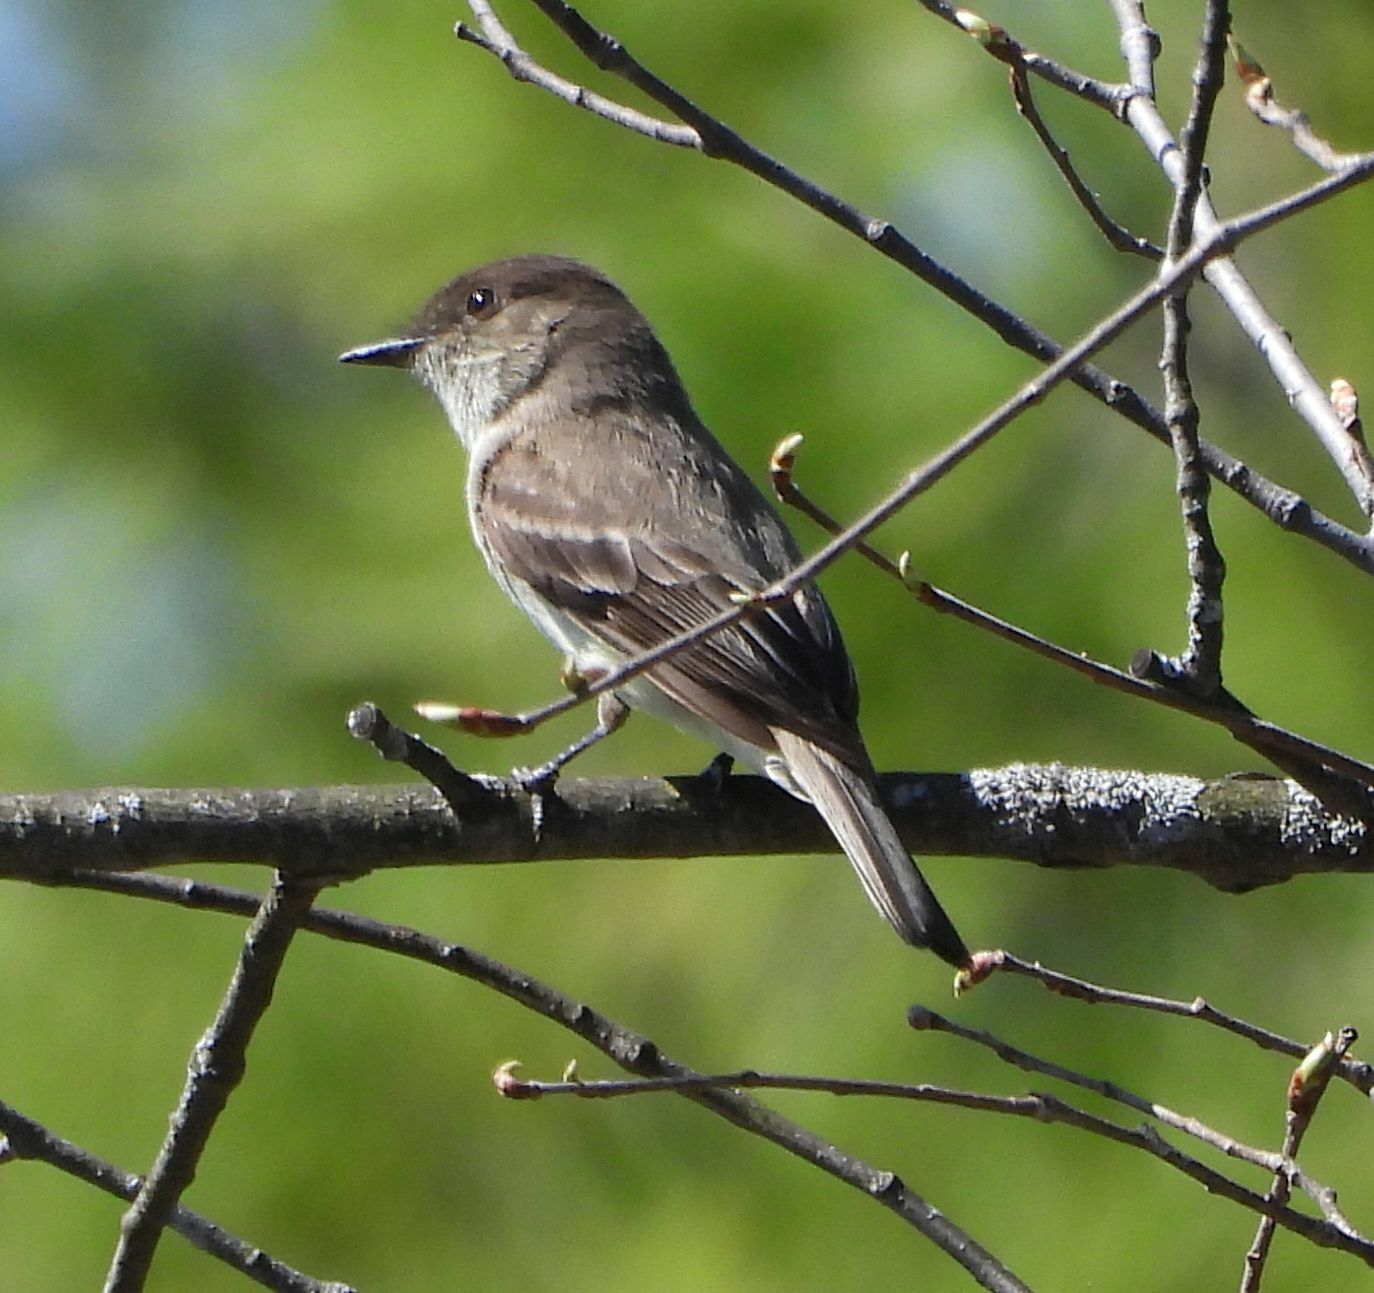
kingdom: Animalia
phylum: Chordata
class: Aves
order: Passeriformes
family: Tyrannidae
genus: Sayornis
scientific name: Sayornis phoebe
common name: Eastern phoebe
